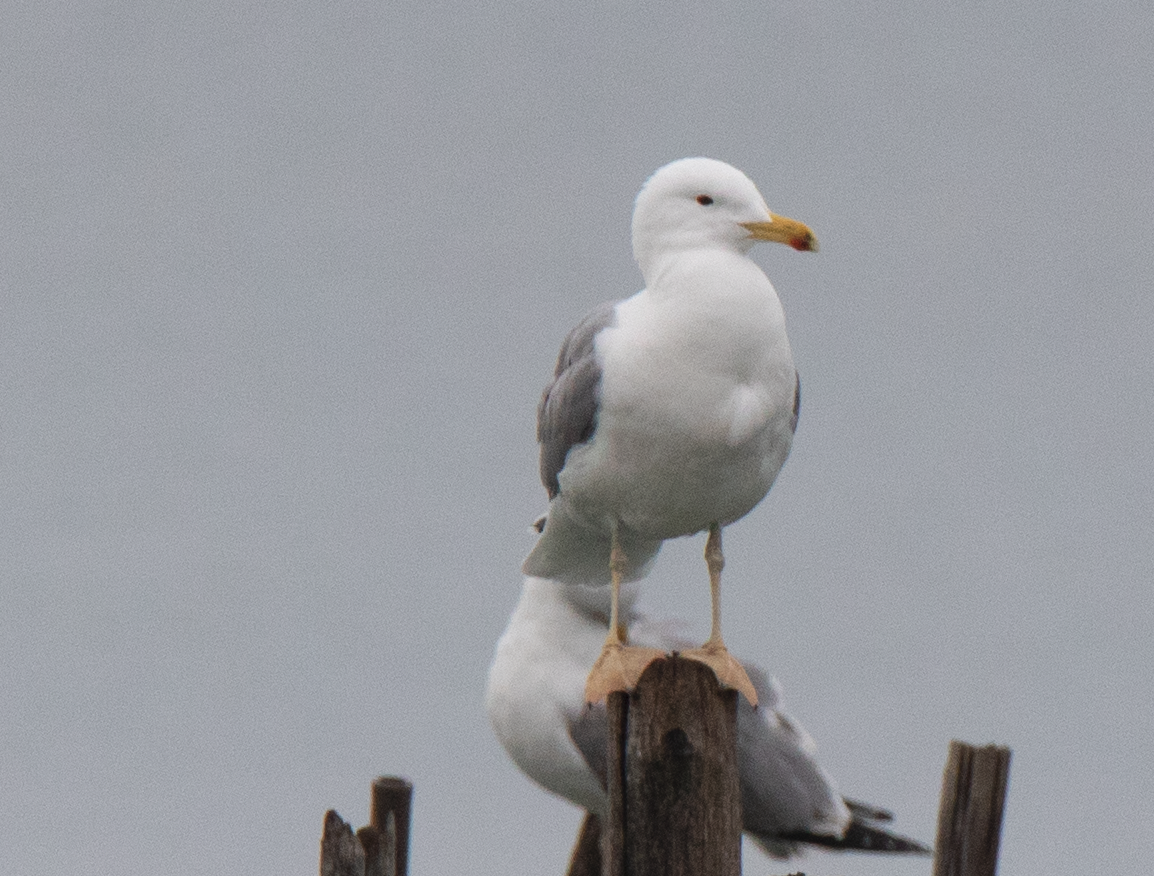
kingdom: Animalia
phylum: Chordata
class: Aves
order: Charadriiformes
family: Laridae
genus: Larus
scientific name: Larus michahellis
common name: Yellow-legged gull
